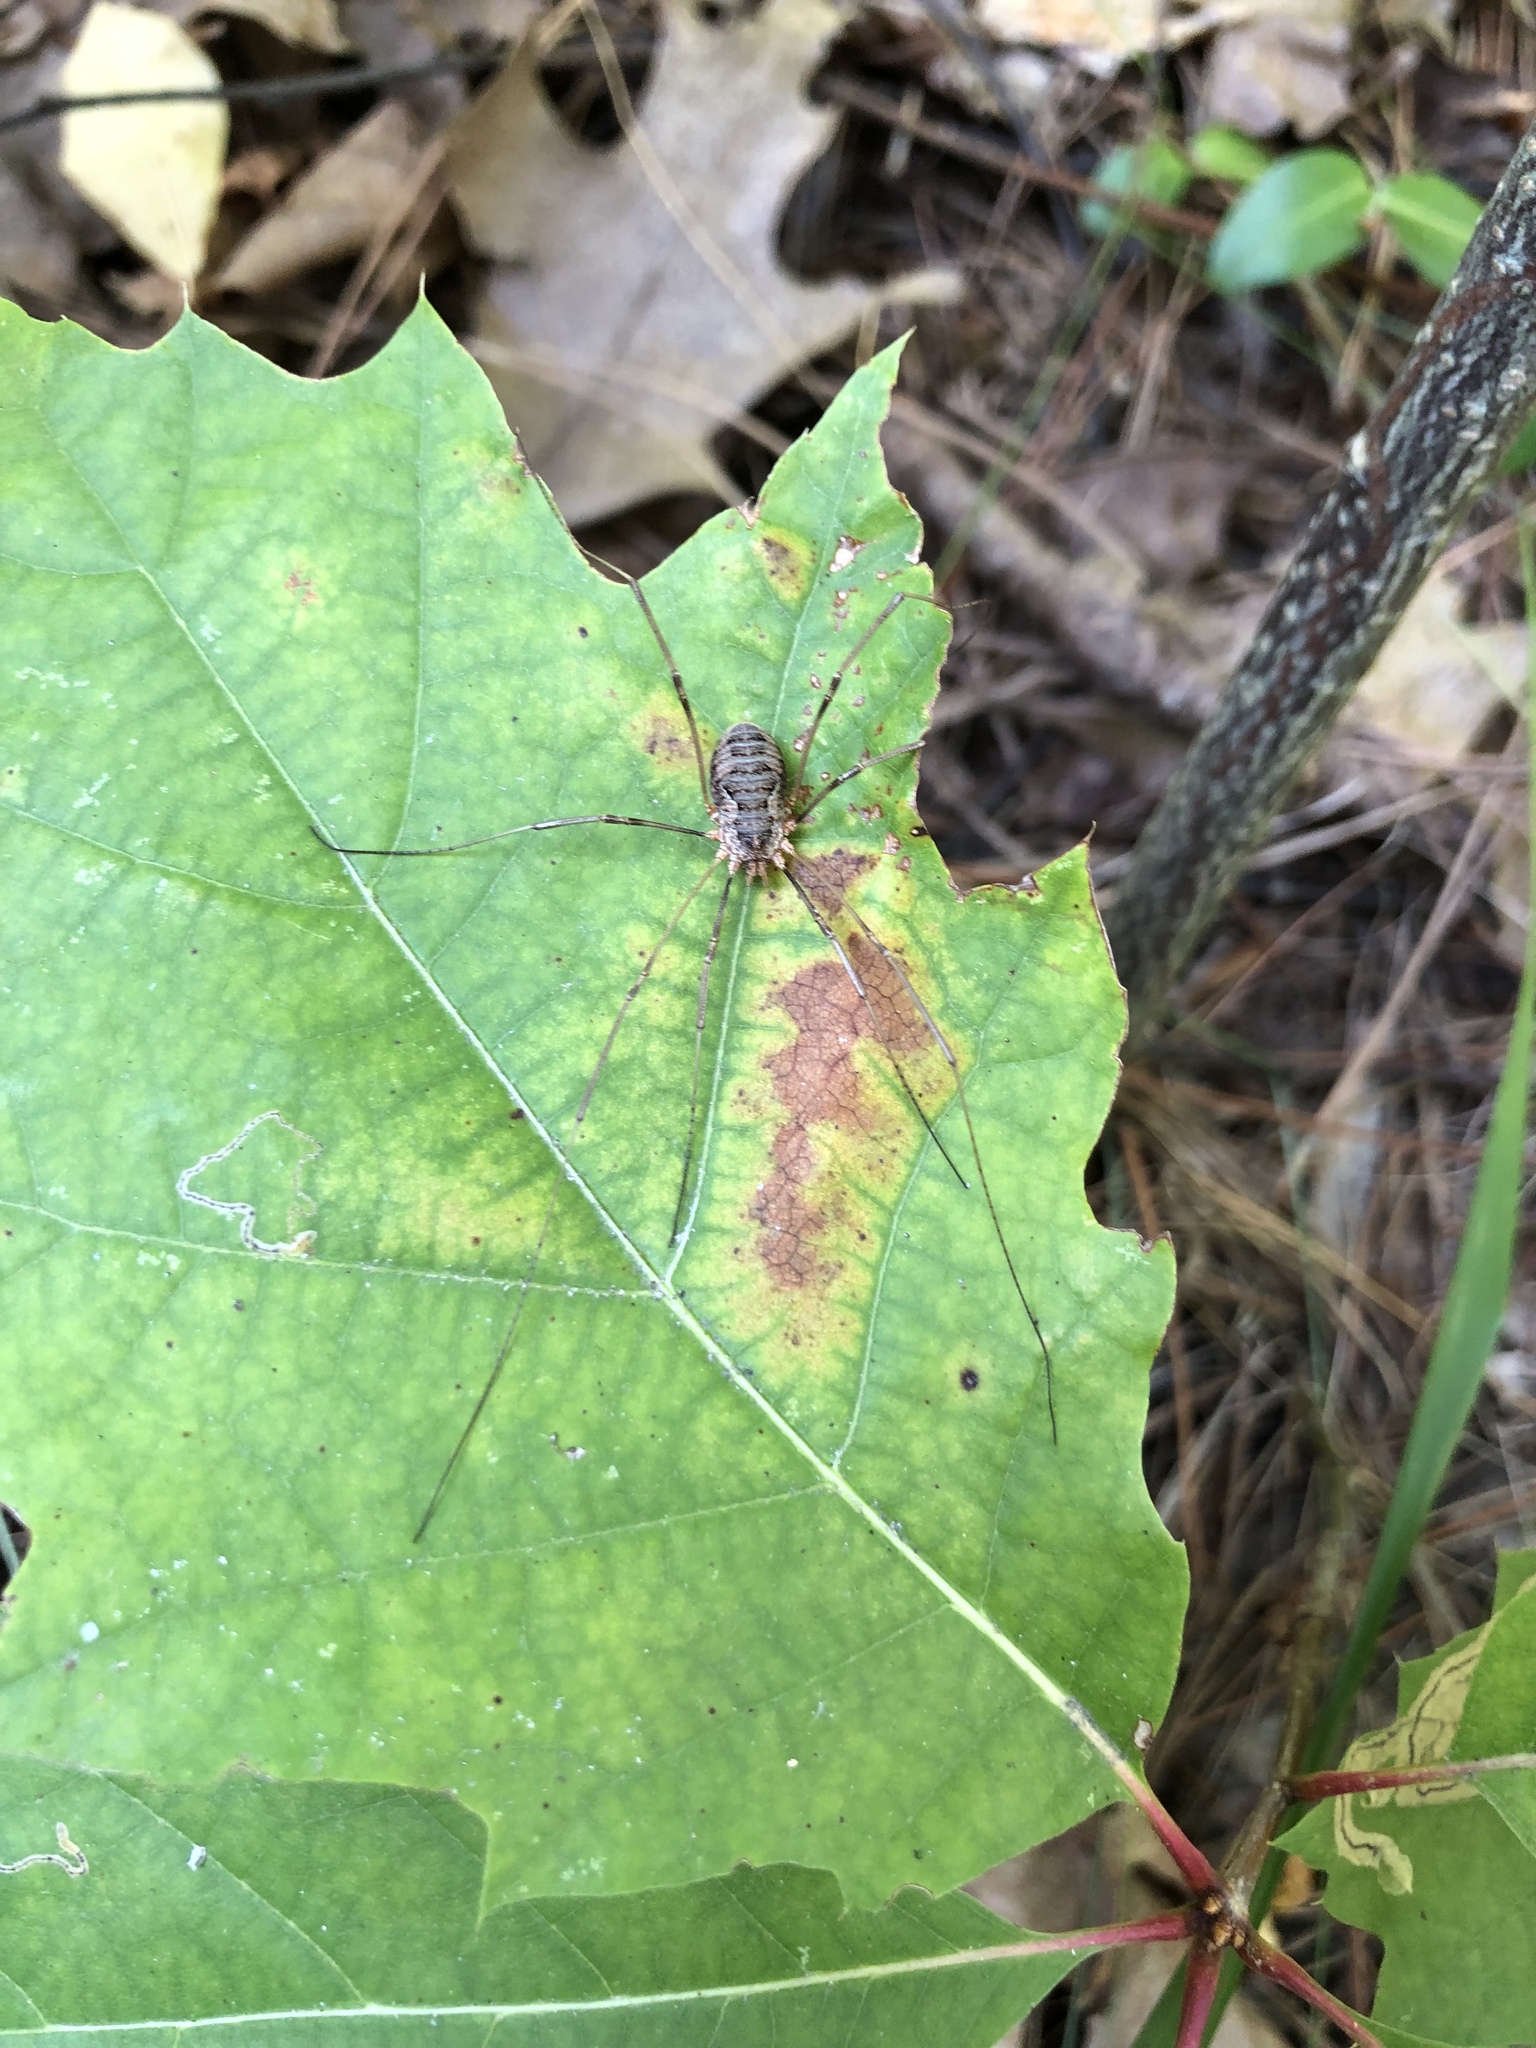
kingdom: Animalia
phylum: Arthropoda
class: Arachnida
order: Opiliones
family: Phalangiidae
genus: Phalangium
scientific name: Phalangium opilio
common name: Daddy longleg
